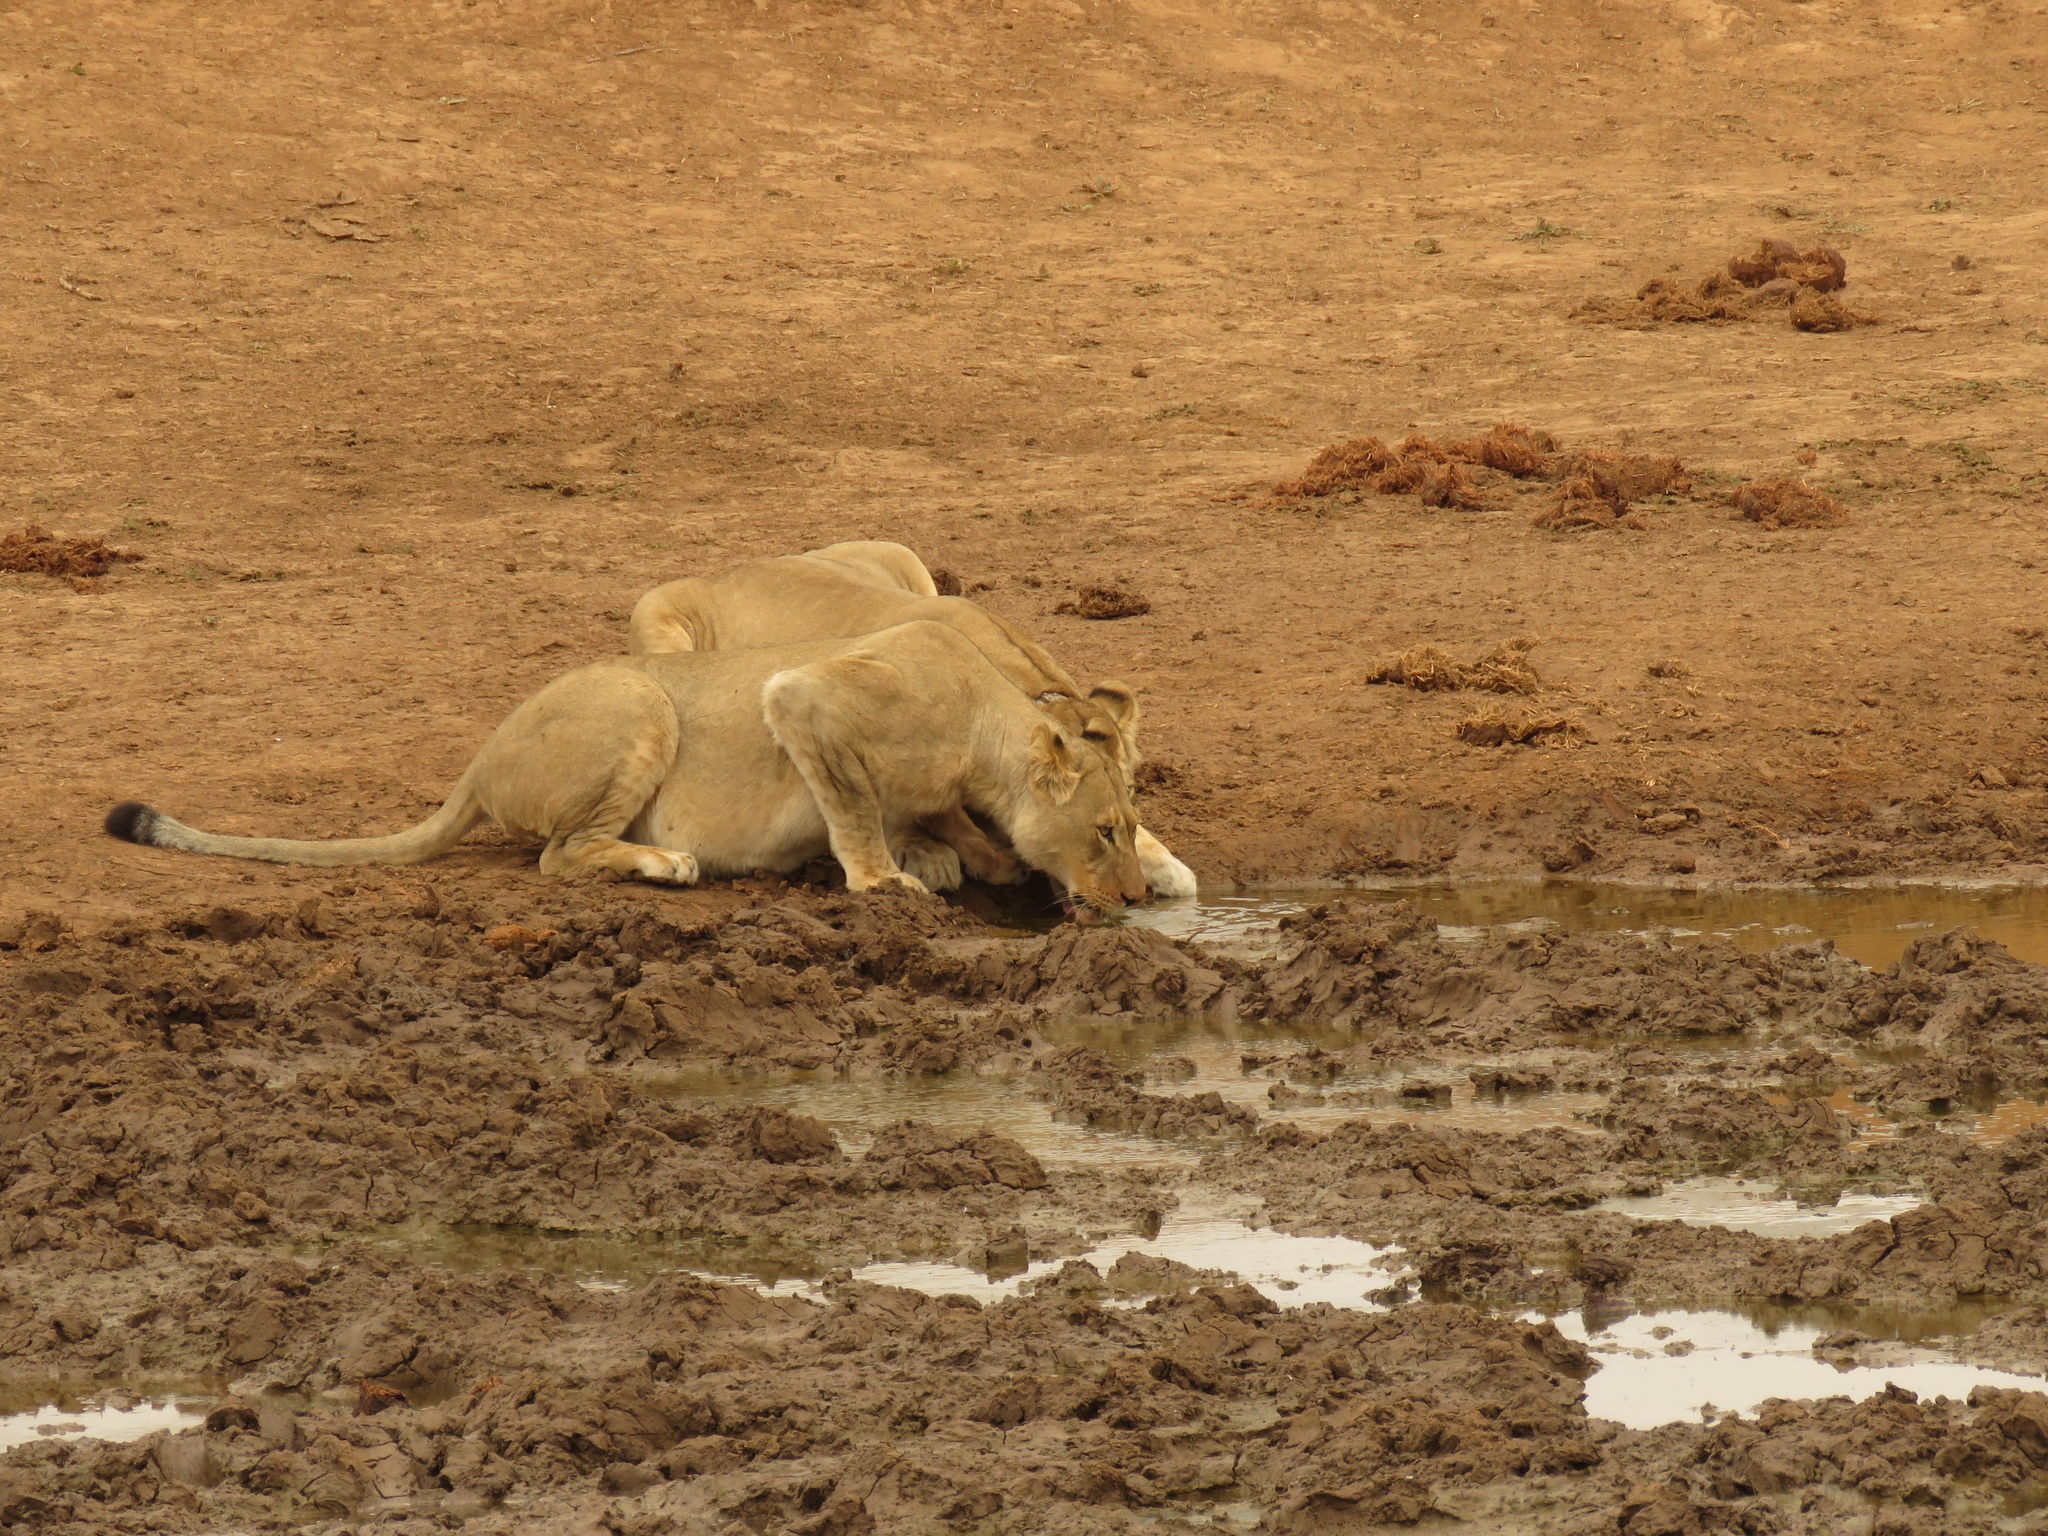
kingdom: Animalia
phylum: Chordata
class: Mammalia
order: Carnivora
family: Felidae
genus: Panthera
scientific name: Panthera leo
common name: Lion
